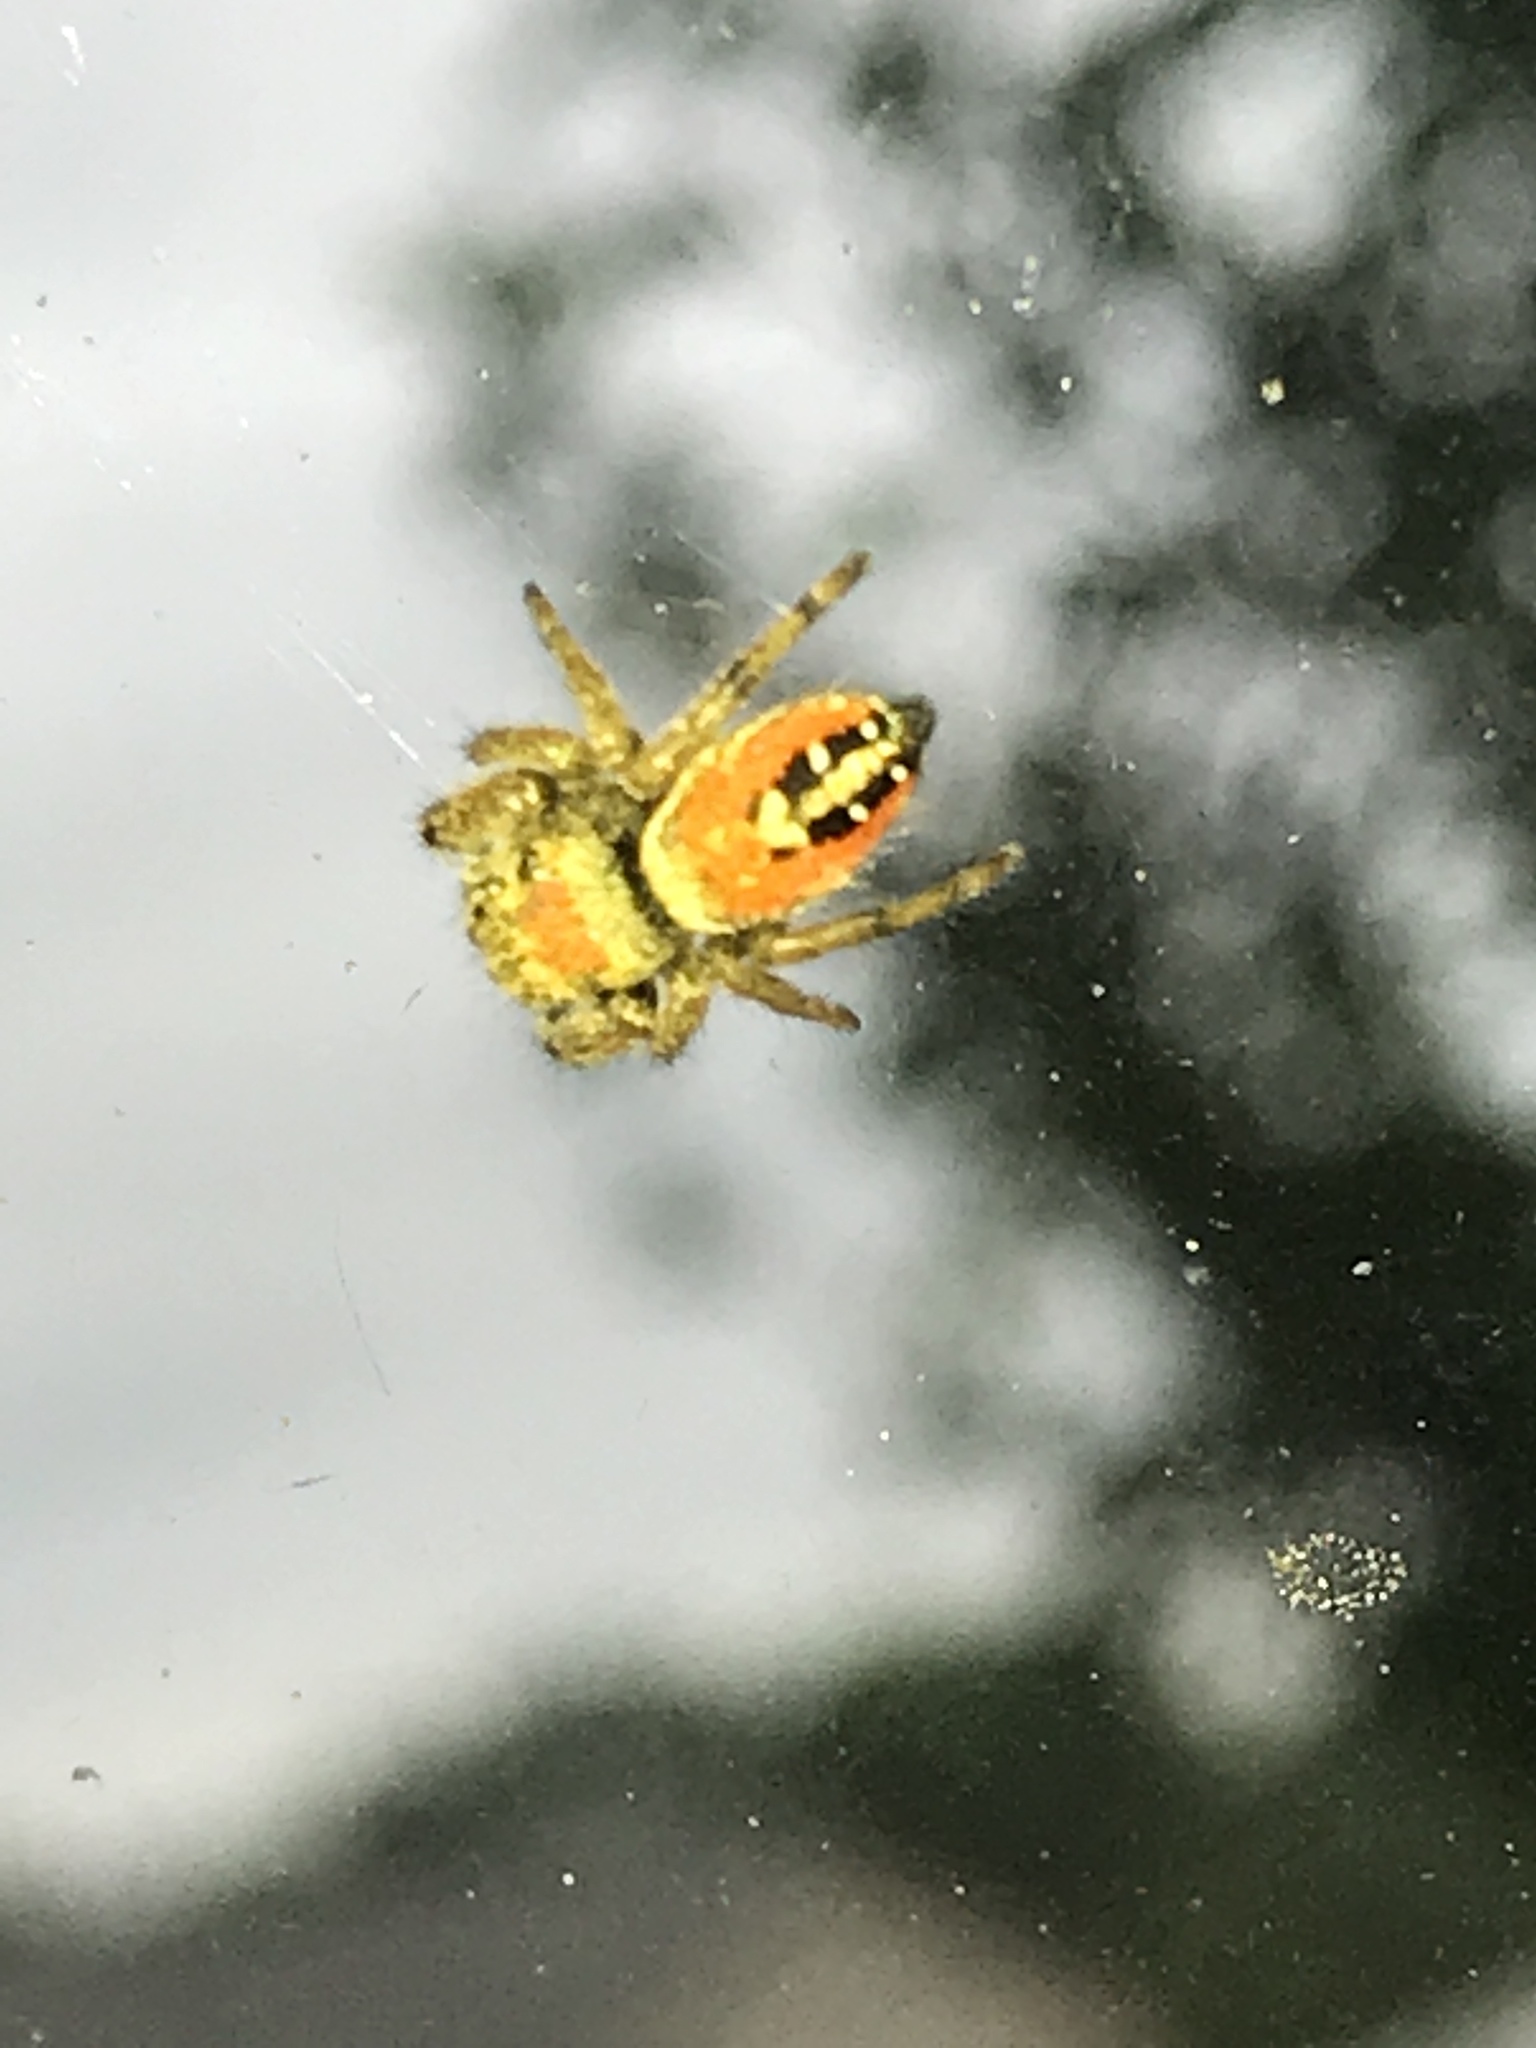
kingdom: Animalia
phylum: Arthropoda
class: Arachnida
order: Araneae
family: Salticidae
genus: Phidippus
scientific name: Phidippus apacheanus
